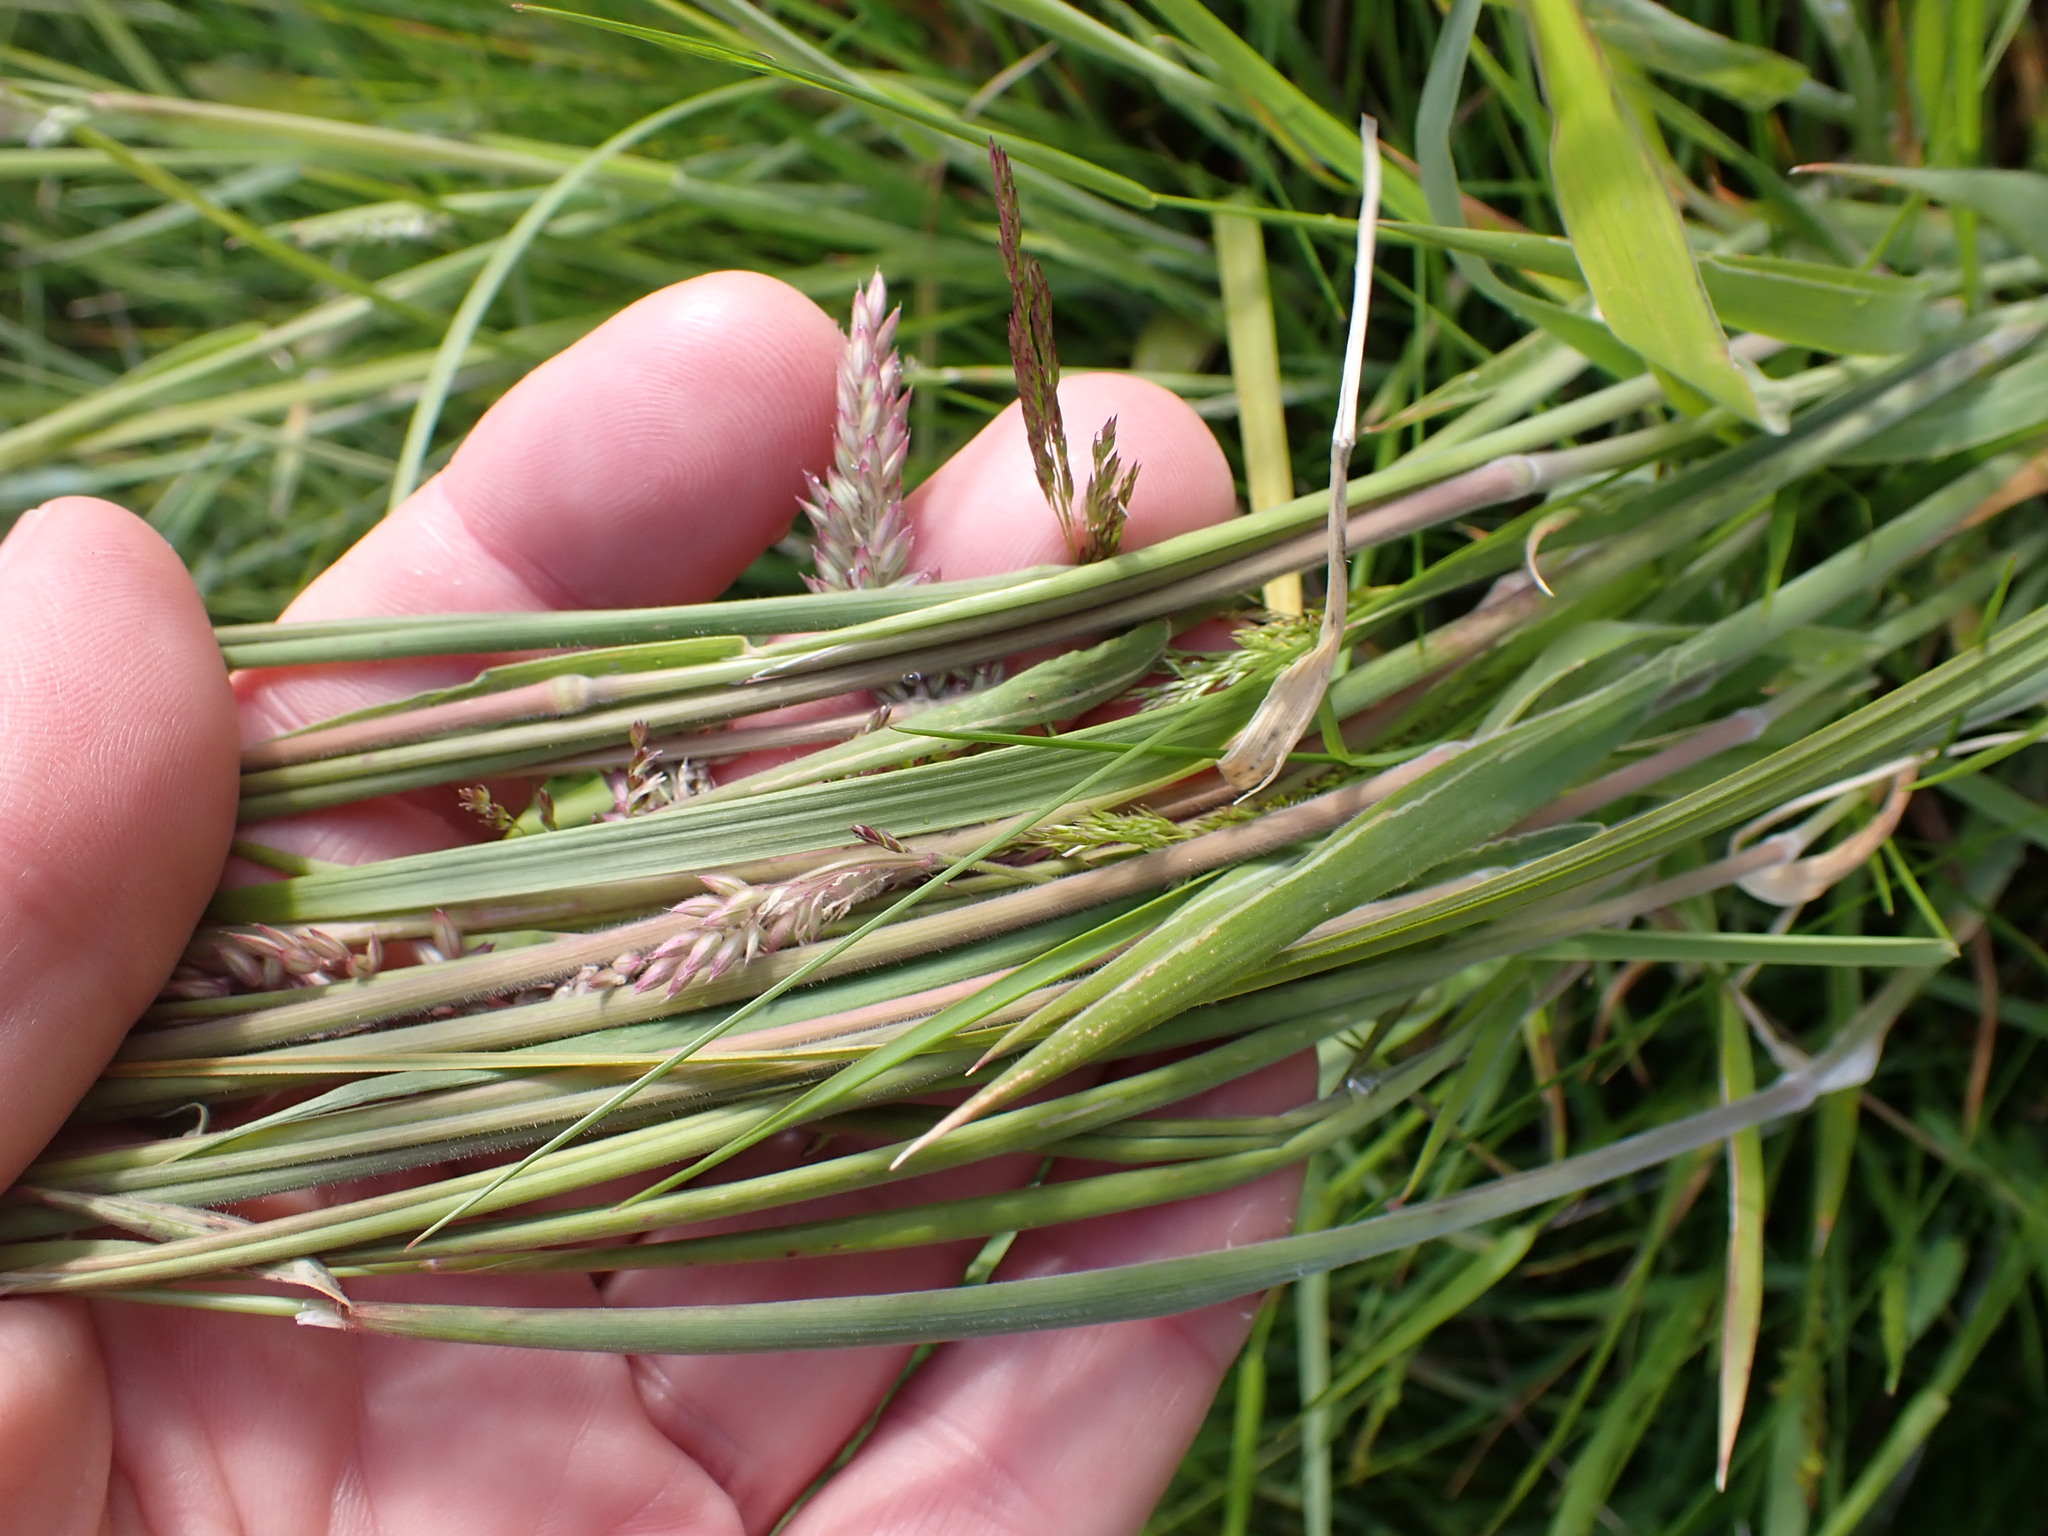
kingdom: Plantae
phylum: Tracheophyta
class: Liliopsida
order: Poales
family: Poaceae
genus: Holcus
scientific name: Holcus lanatus
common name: Yorkshire-fog
